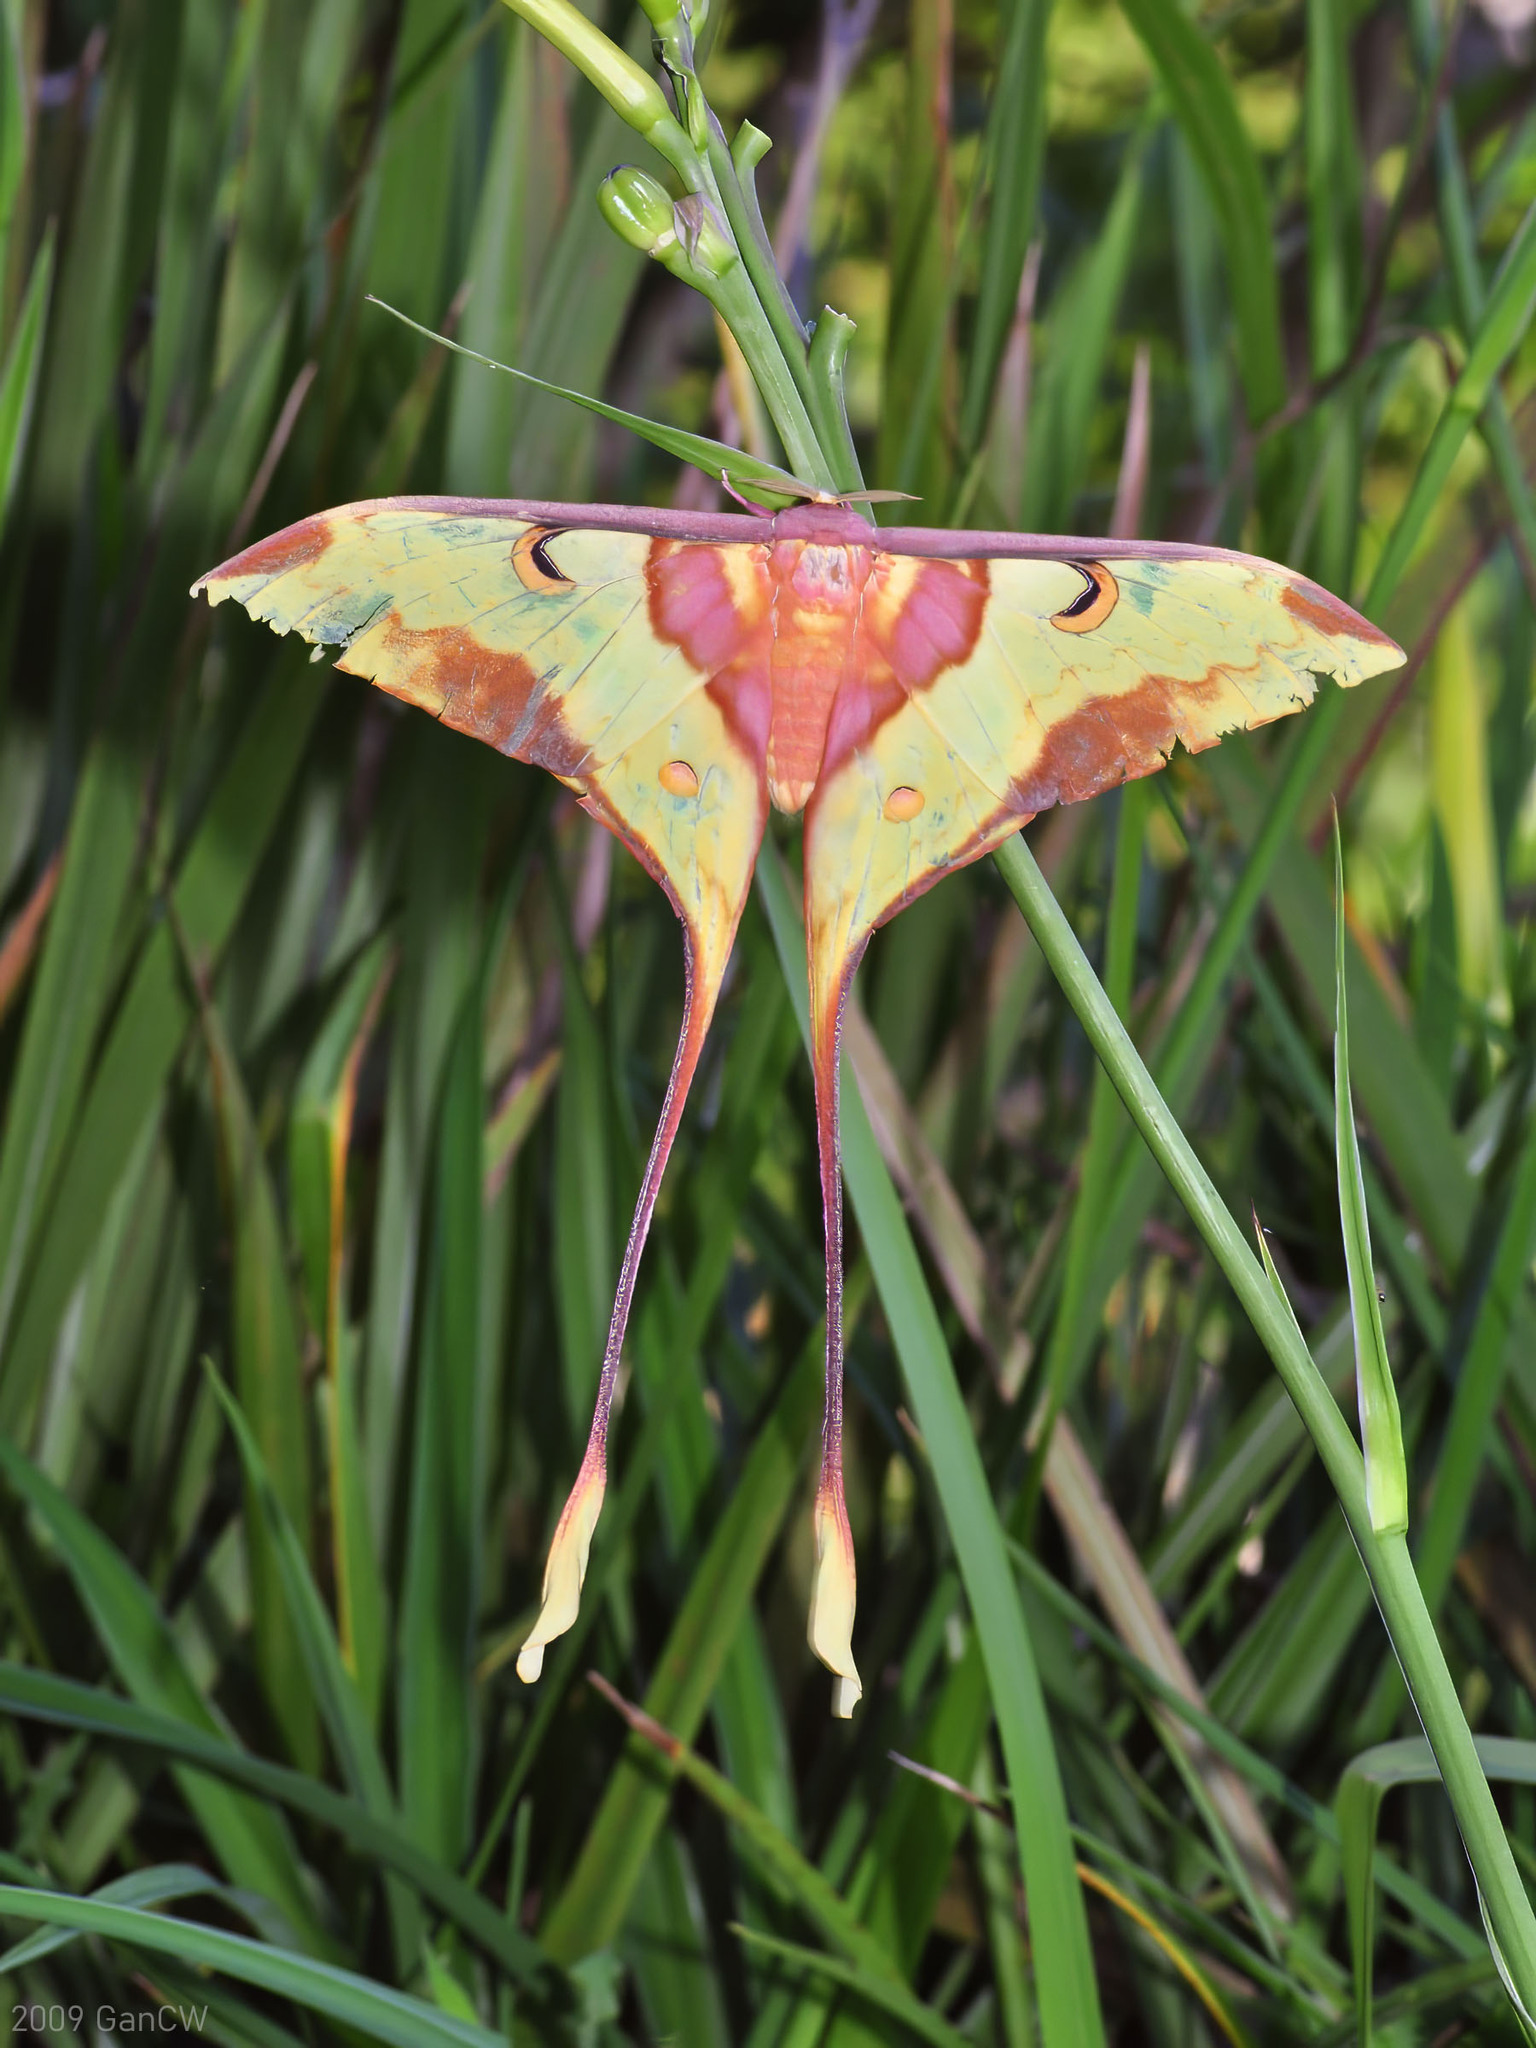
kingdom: Animalia
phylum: Arthropoda
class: Insecta
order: Lepidoptera
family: Saturniidae
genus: Actias
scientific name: Actias maenas
